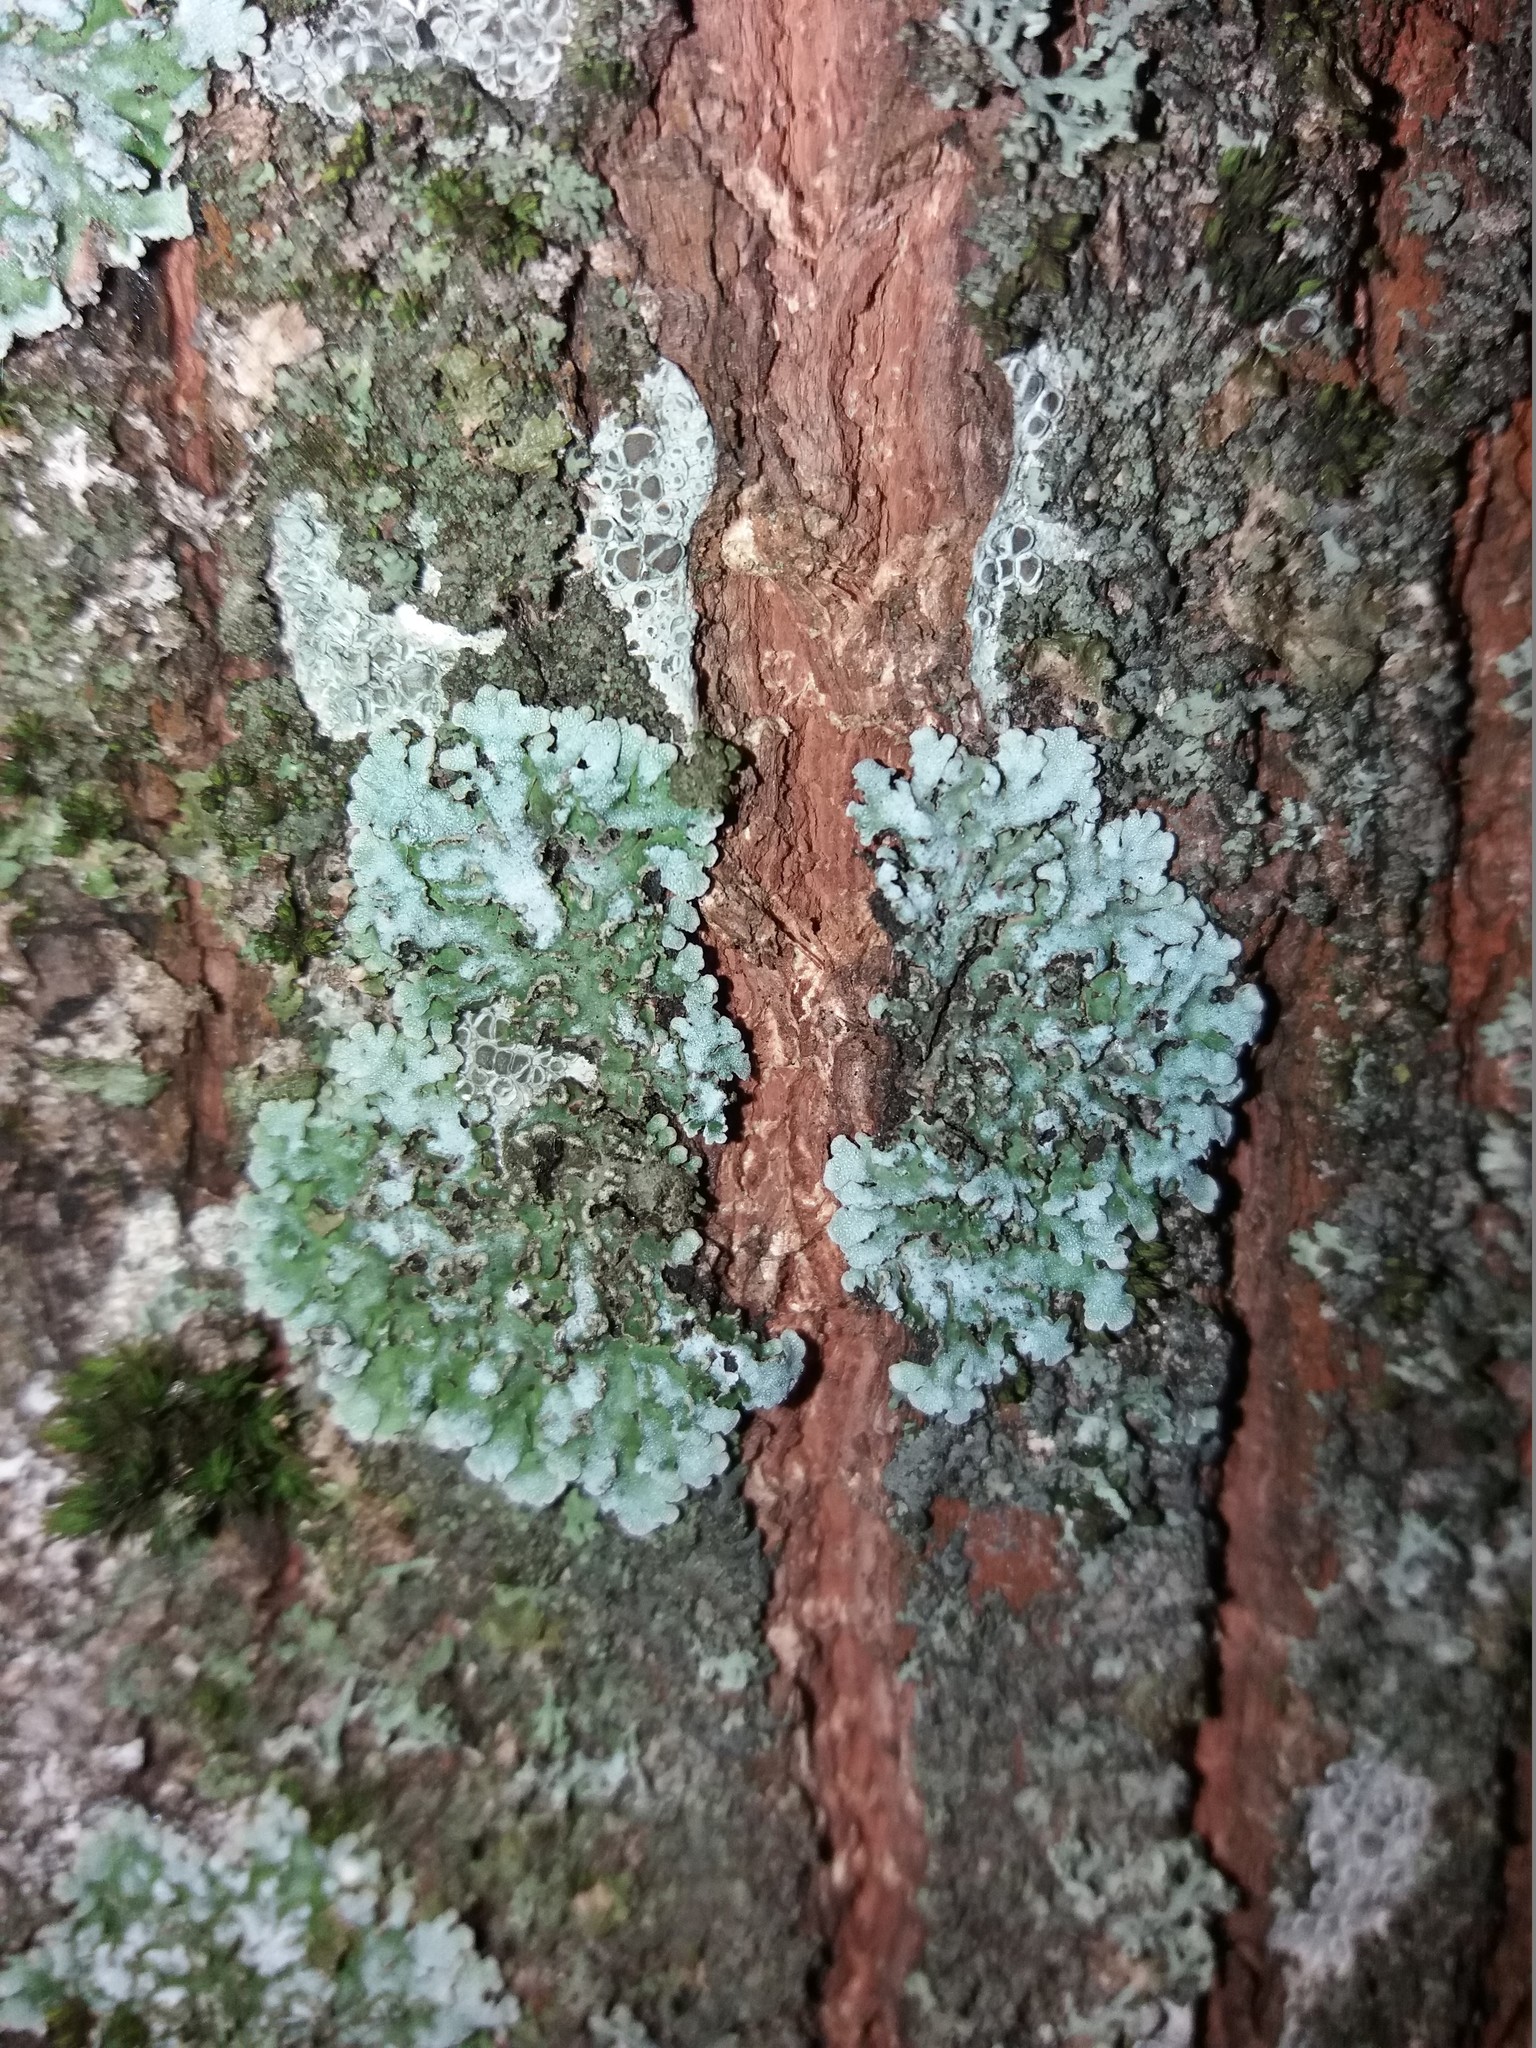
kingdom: Fungi
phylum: Ascomycota
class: Lecanoromycetes
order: Caliciales
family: Physciaceae
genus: Physconia
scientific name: Physconia perisidiosa
